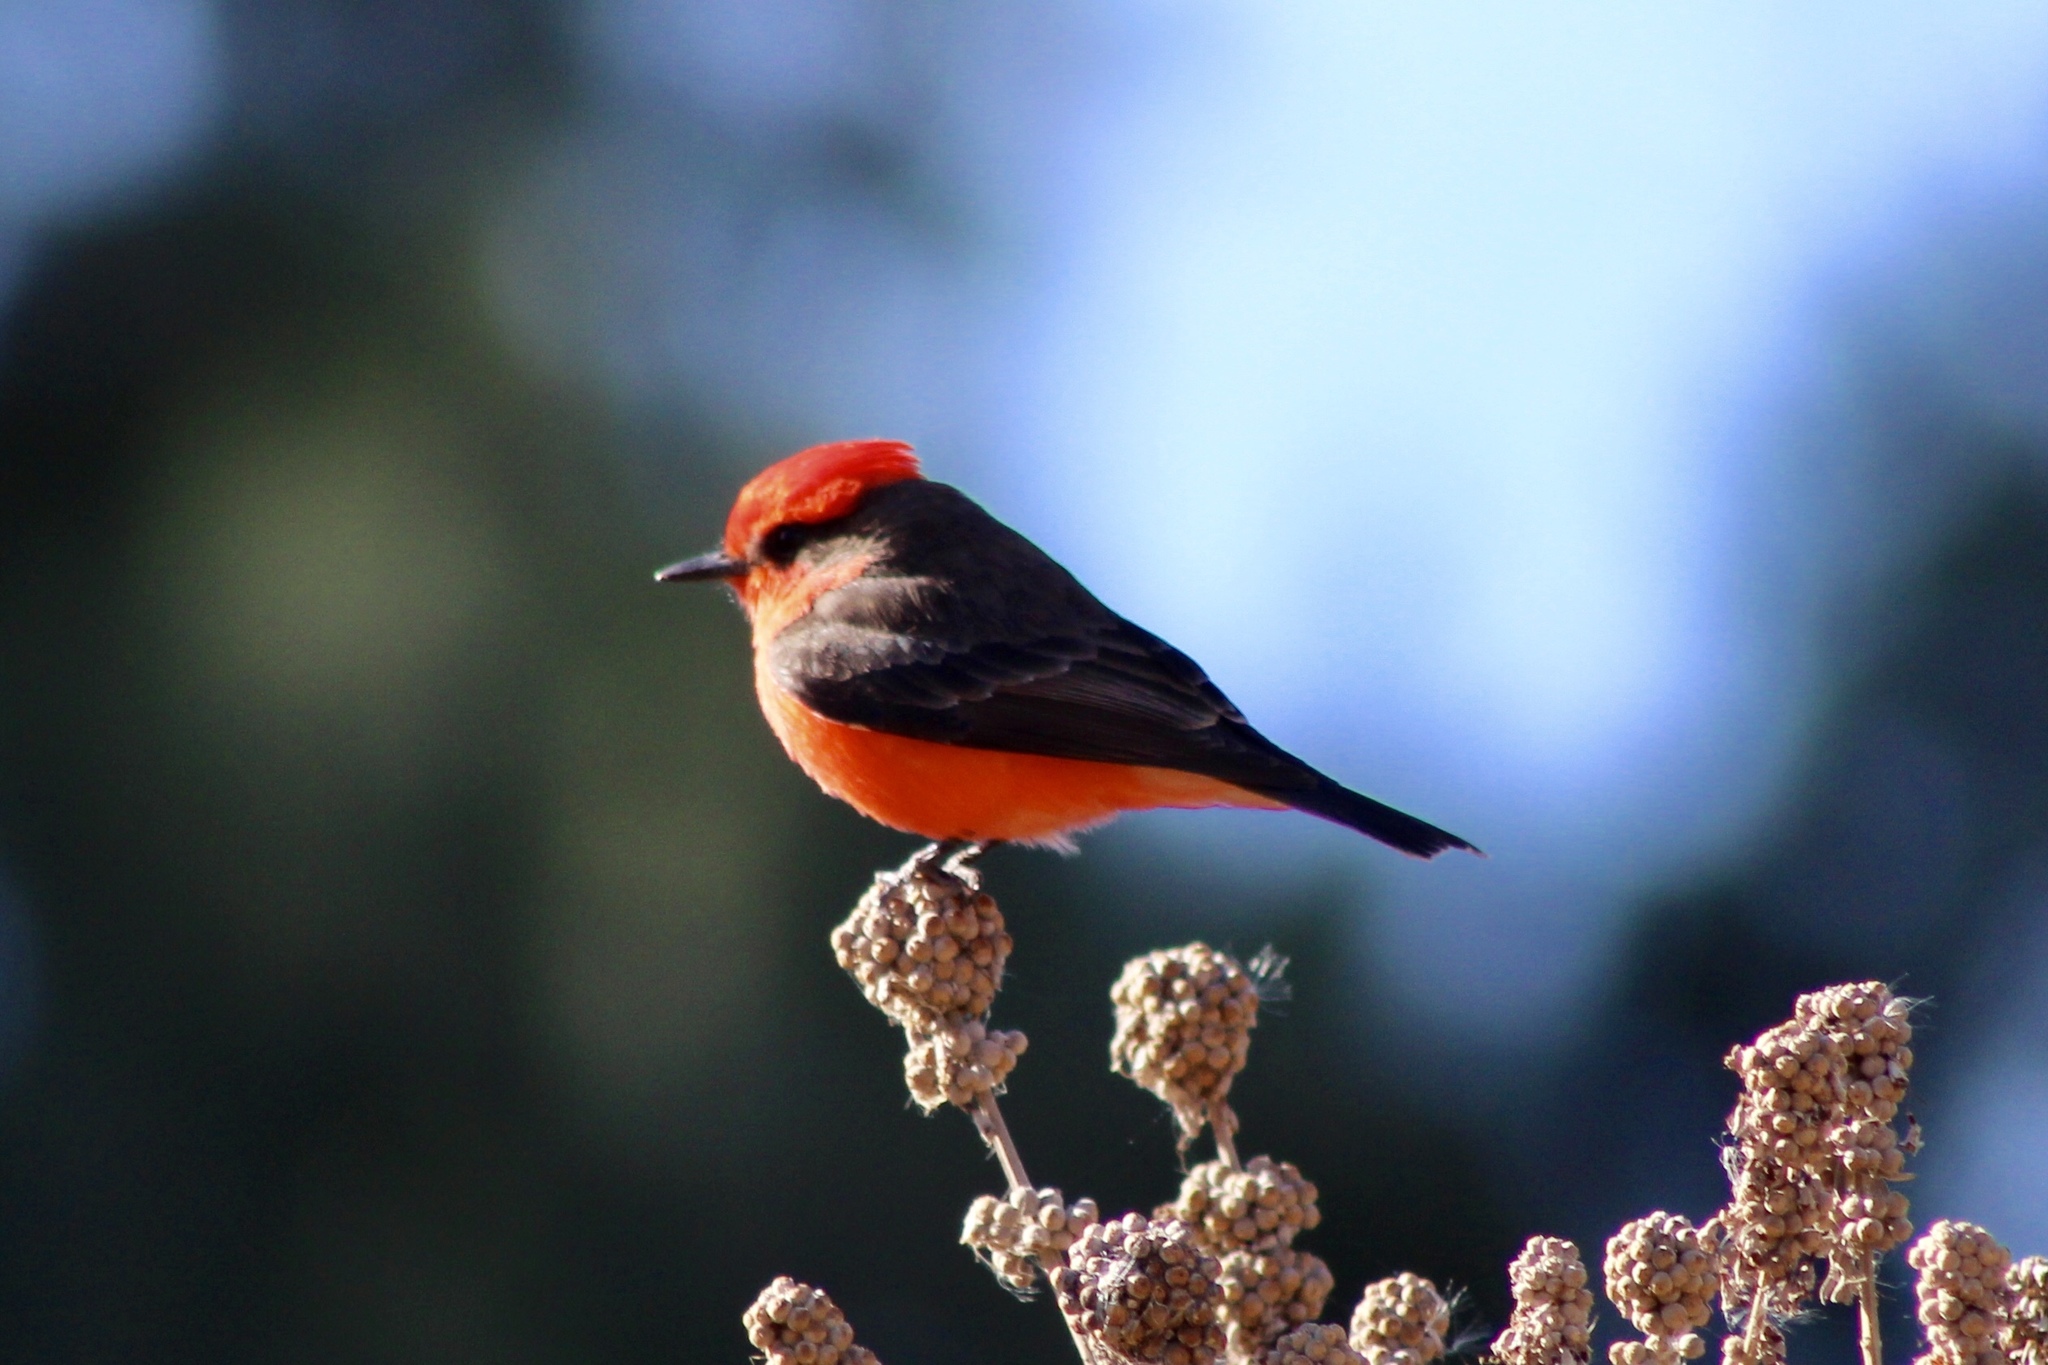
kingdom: Animalia
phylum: Chordata
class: Aves
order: Passeriformes
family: Tyrannidae
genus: Pyrocephalus
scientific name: Pyrocephalus rubinus
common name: Vermilion flycatcher
